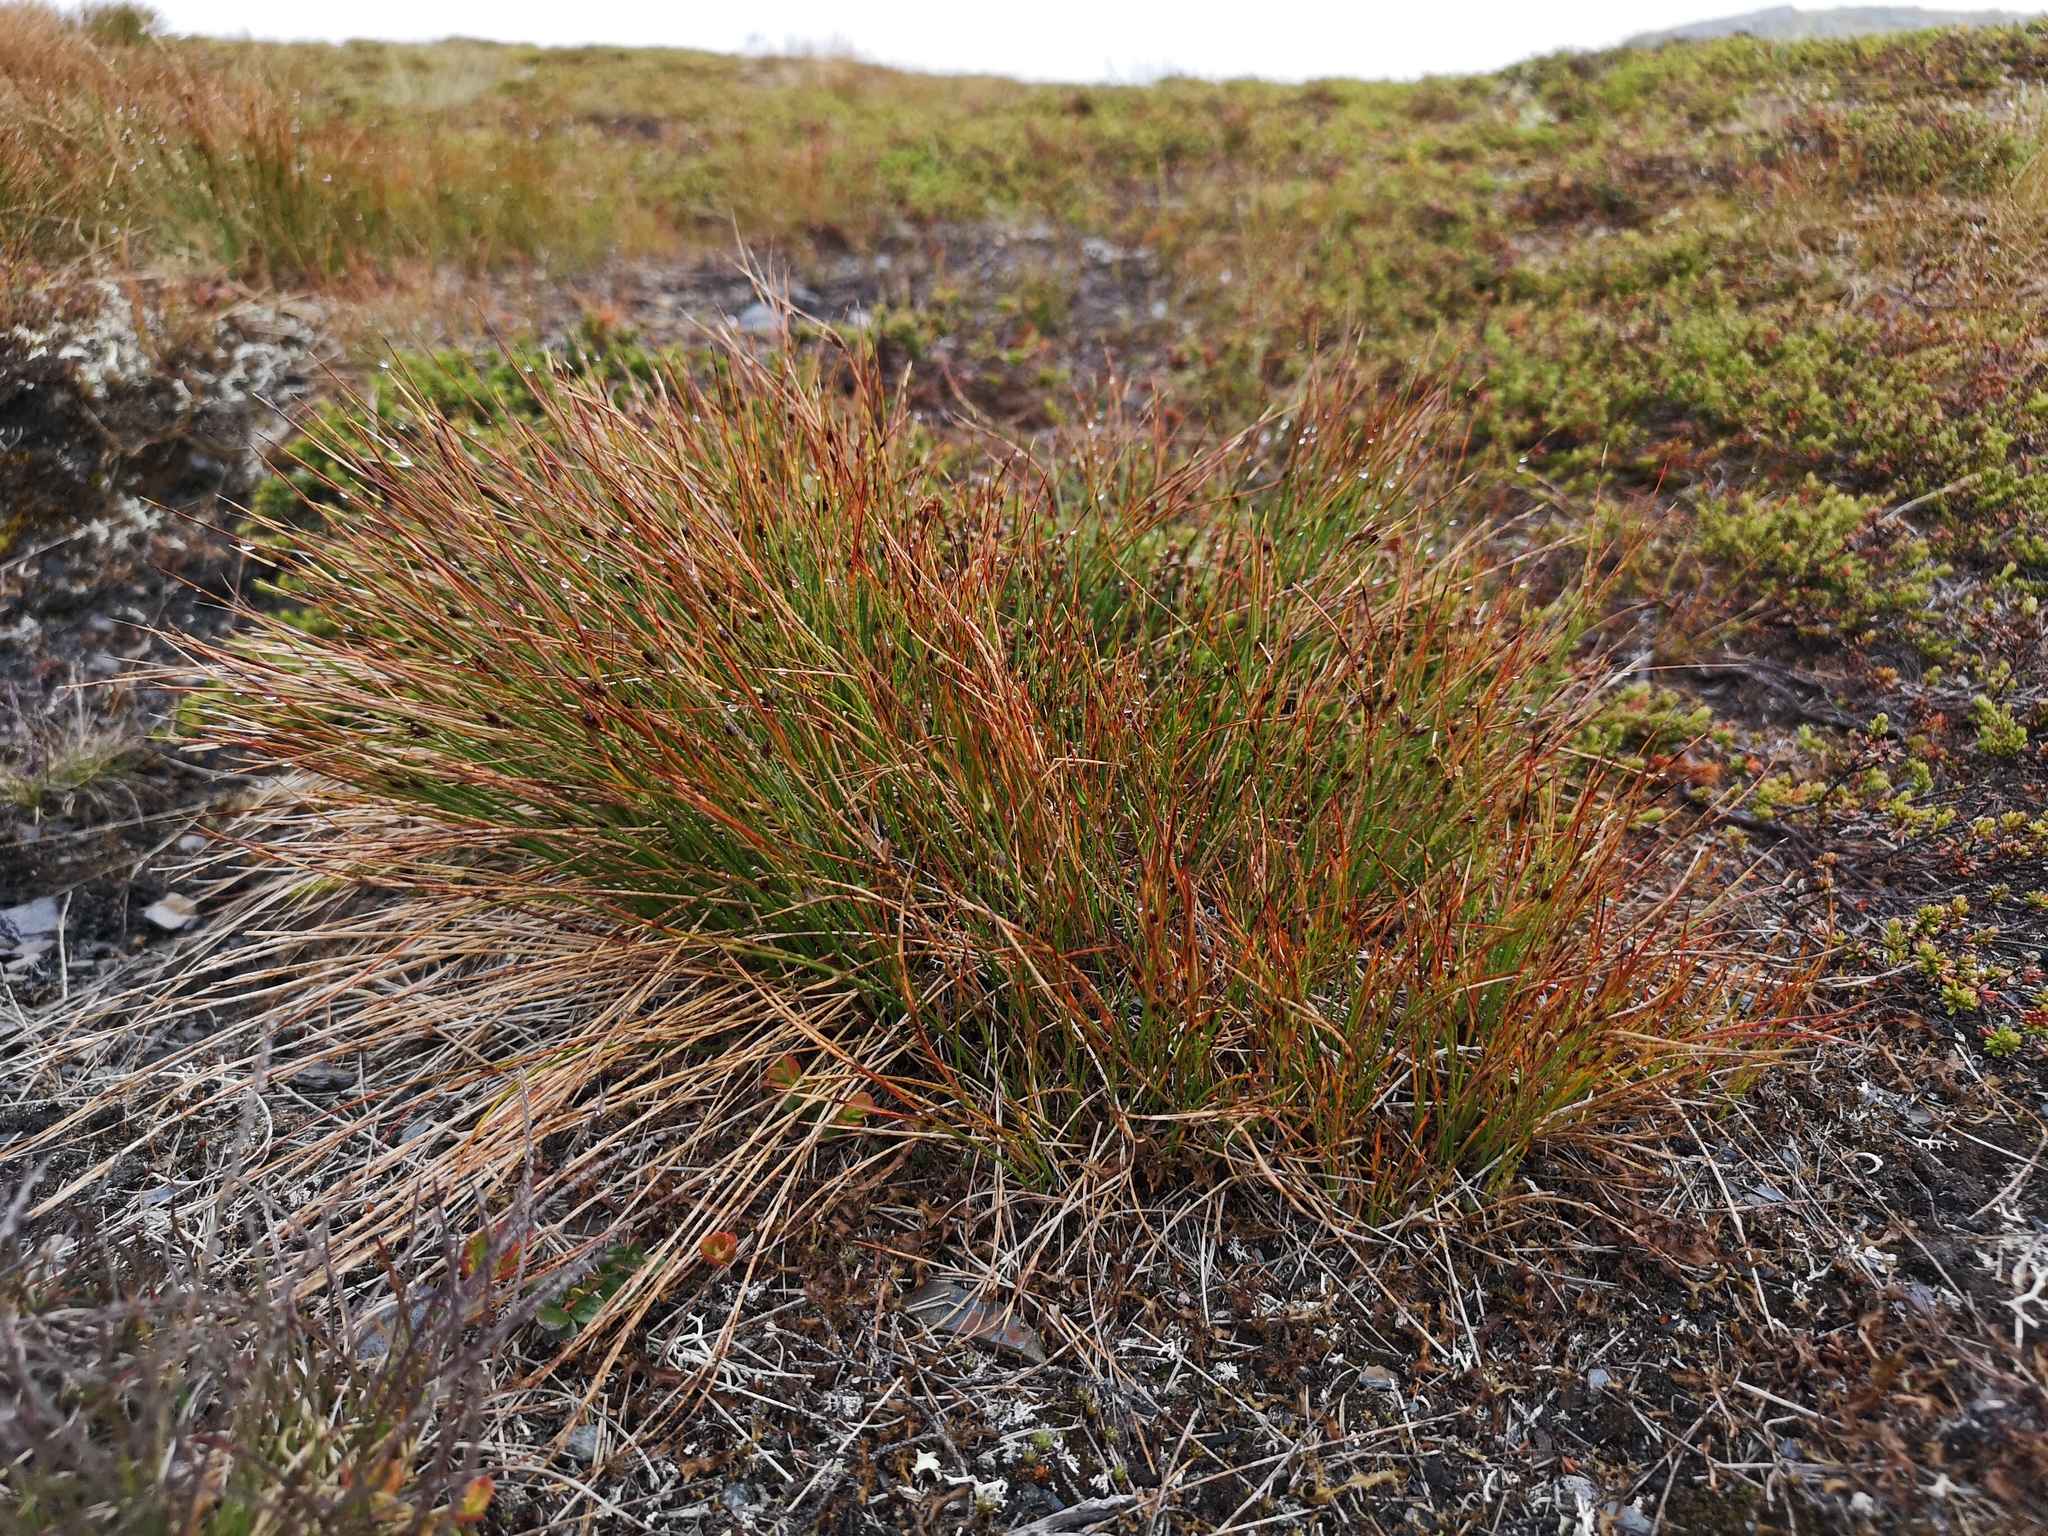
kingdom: Plantae
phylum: Tracheophyta
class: Liliopsida
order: Poales
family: Juncaceae
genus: Oreojuncus
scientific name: Oreojuncus trifidus
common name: Highland rush
